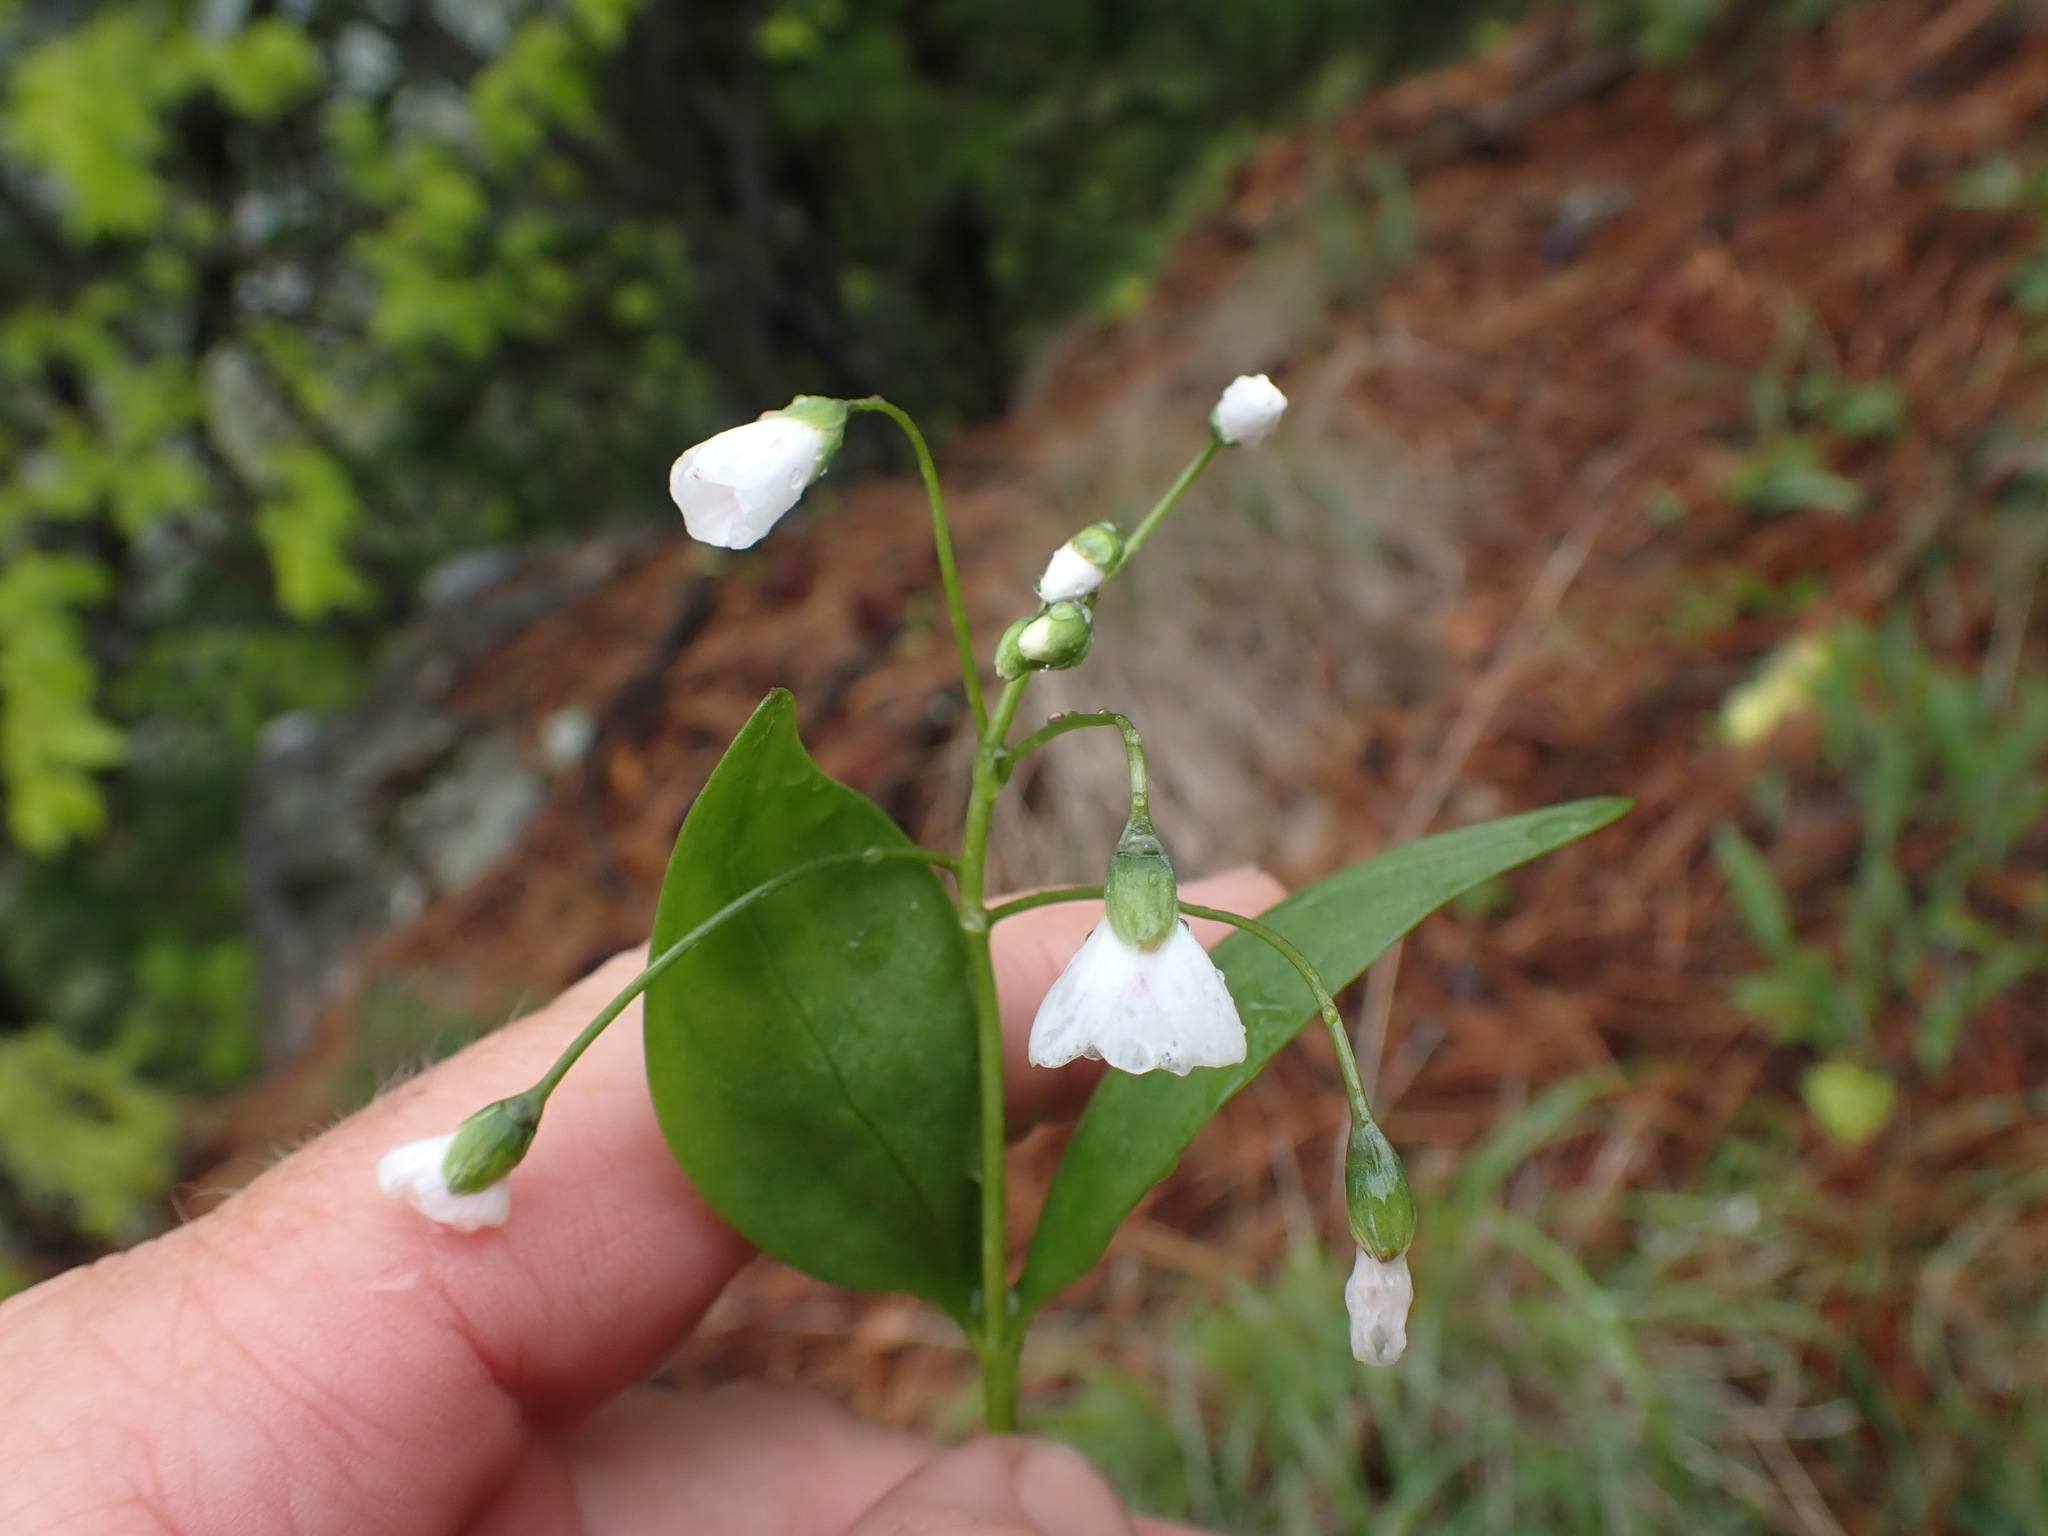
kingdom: Plantae
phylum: Tracheophyta
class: Magnoliopsida
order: Caryophyllales
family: Montiaceae
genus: Claytonia
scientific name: Claytonia lanceolata
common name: Western spring-beauty
